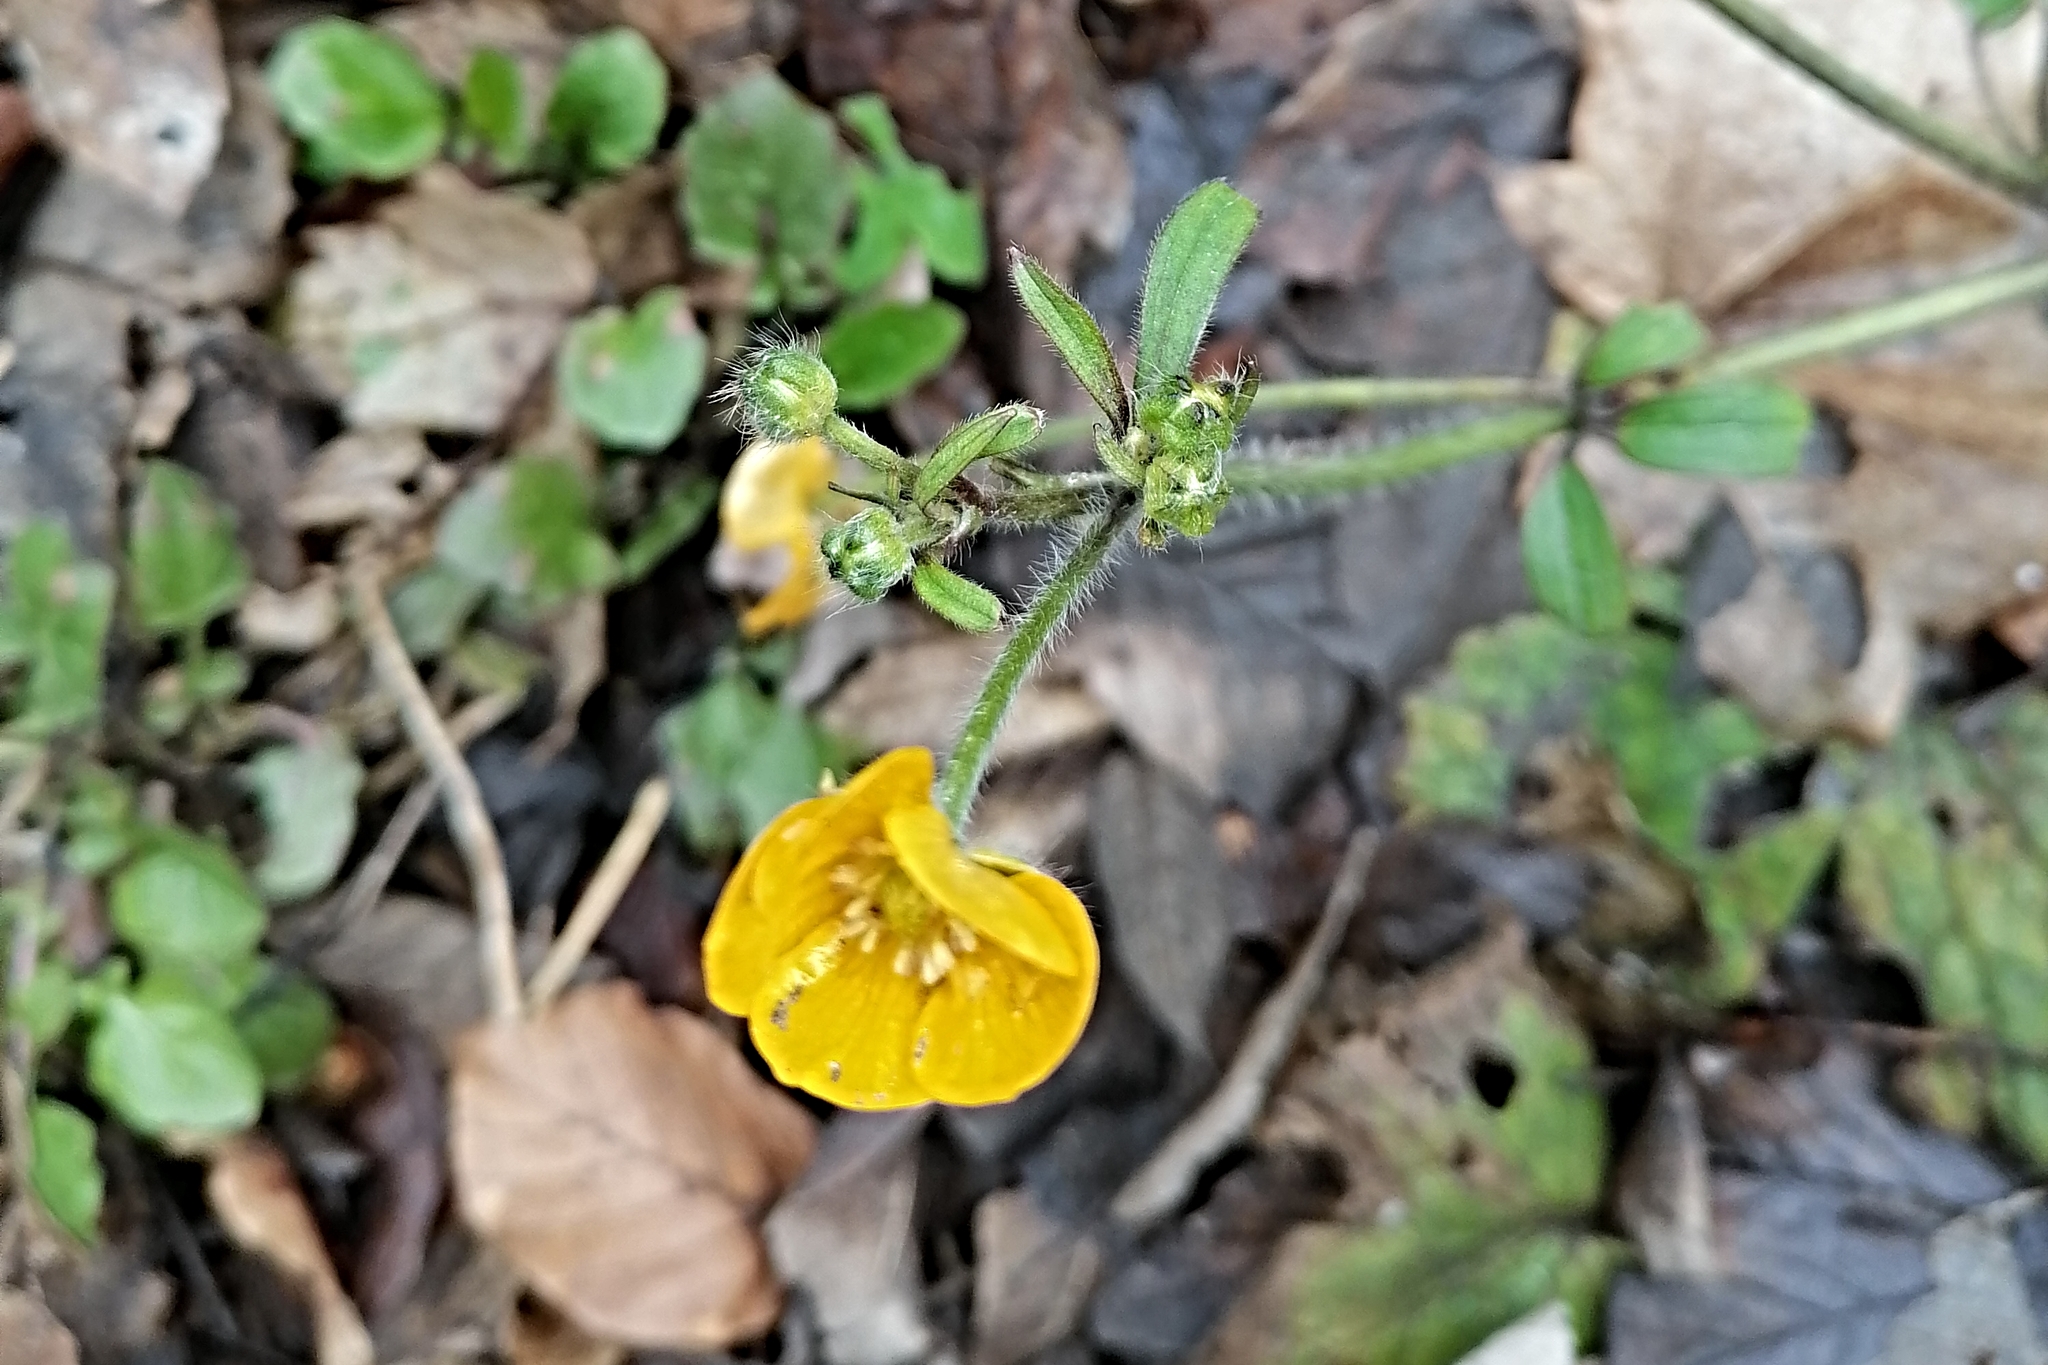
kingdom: Plantae
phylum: Tracheophyta
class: Magnoliopsida
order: Ranunculales
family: Ranunculaceae
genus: Ranunculus
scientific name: Ranunculus lanuginosus
